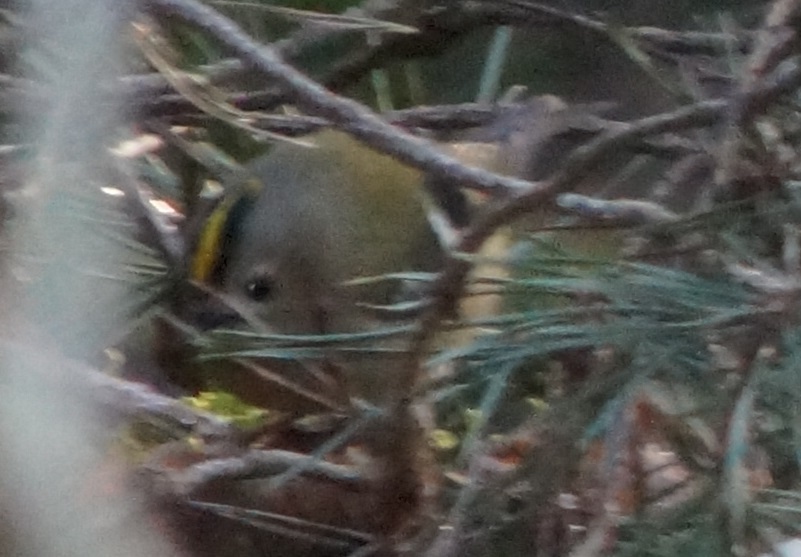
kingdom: Animalia
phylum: Chordata
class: Aves
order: Passeriformes
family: Regulidae
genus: Regulus
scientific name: Regulus regulus
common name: Goldcrest
